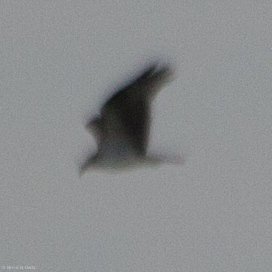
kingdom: Animalia
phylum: Chordata
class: Aves
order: Accipitriformes
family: Pandionidae
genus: Pandion
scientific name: Pandion haliaetus
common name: Osprey
